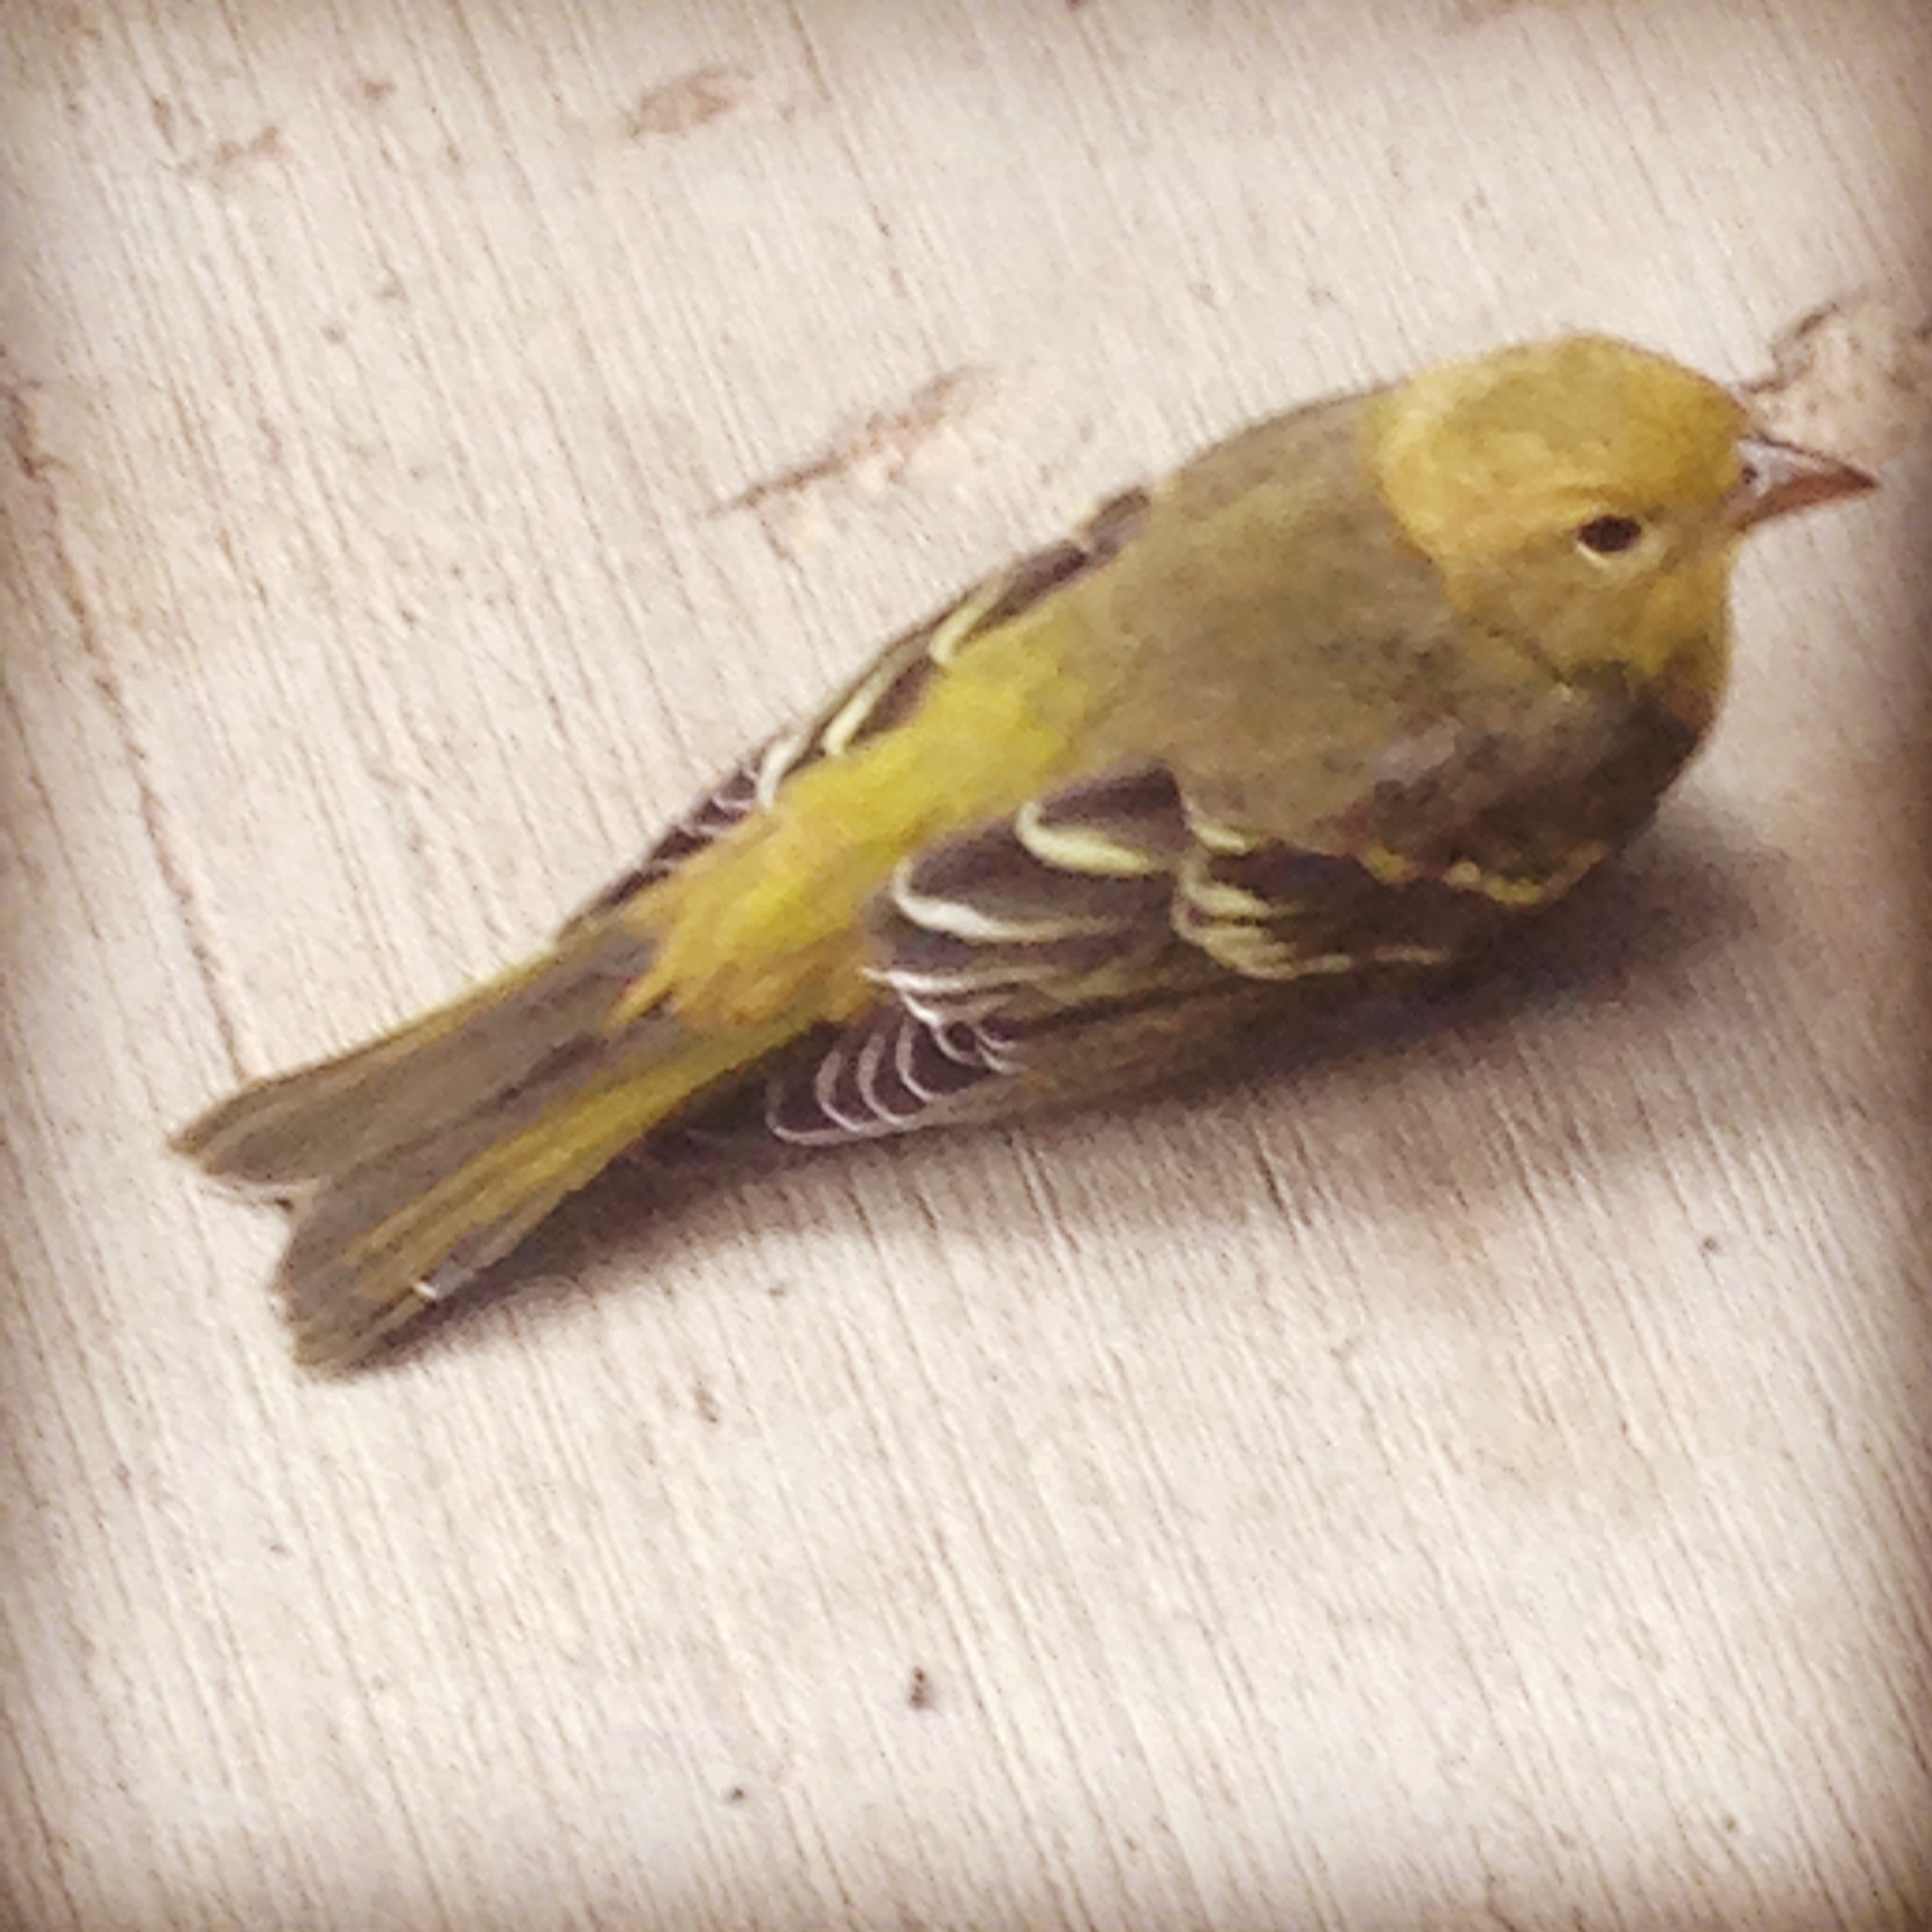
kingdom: Animalia
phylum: Chordata
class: Aves
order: Passeriformes
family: Cardinalidae
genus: Piranga
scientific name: Piranga ludoviciana
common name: Western tanager
